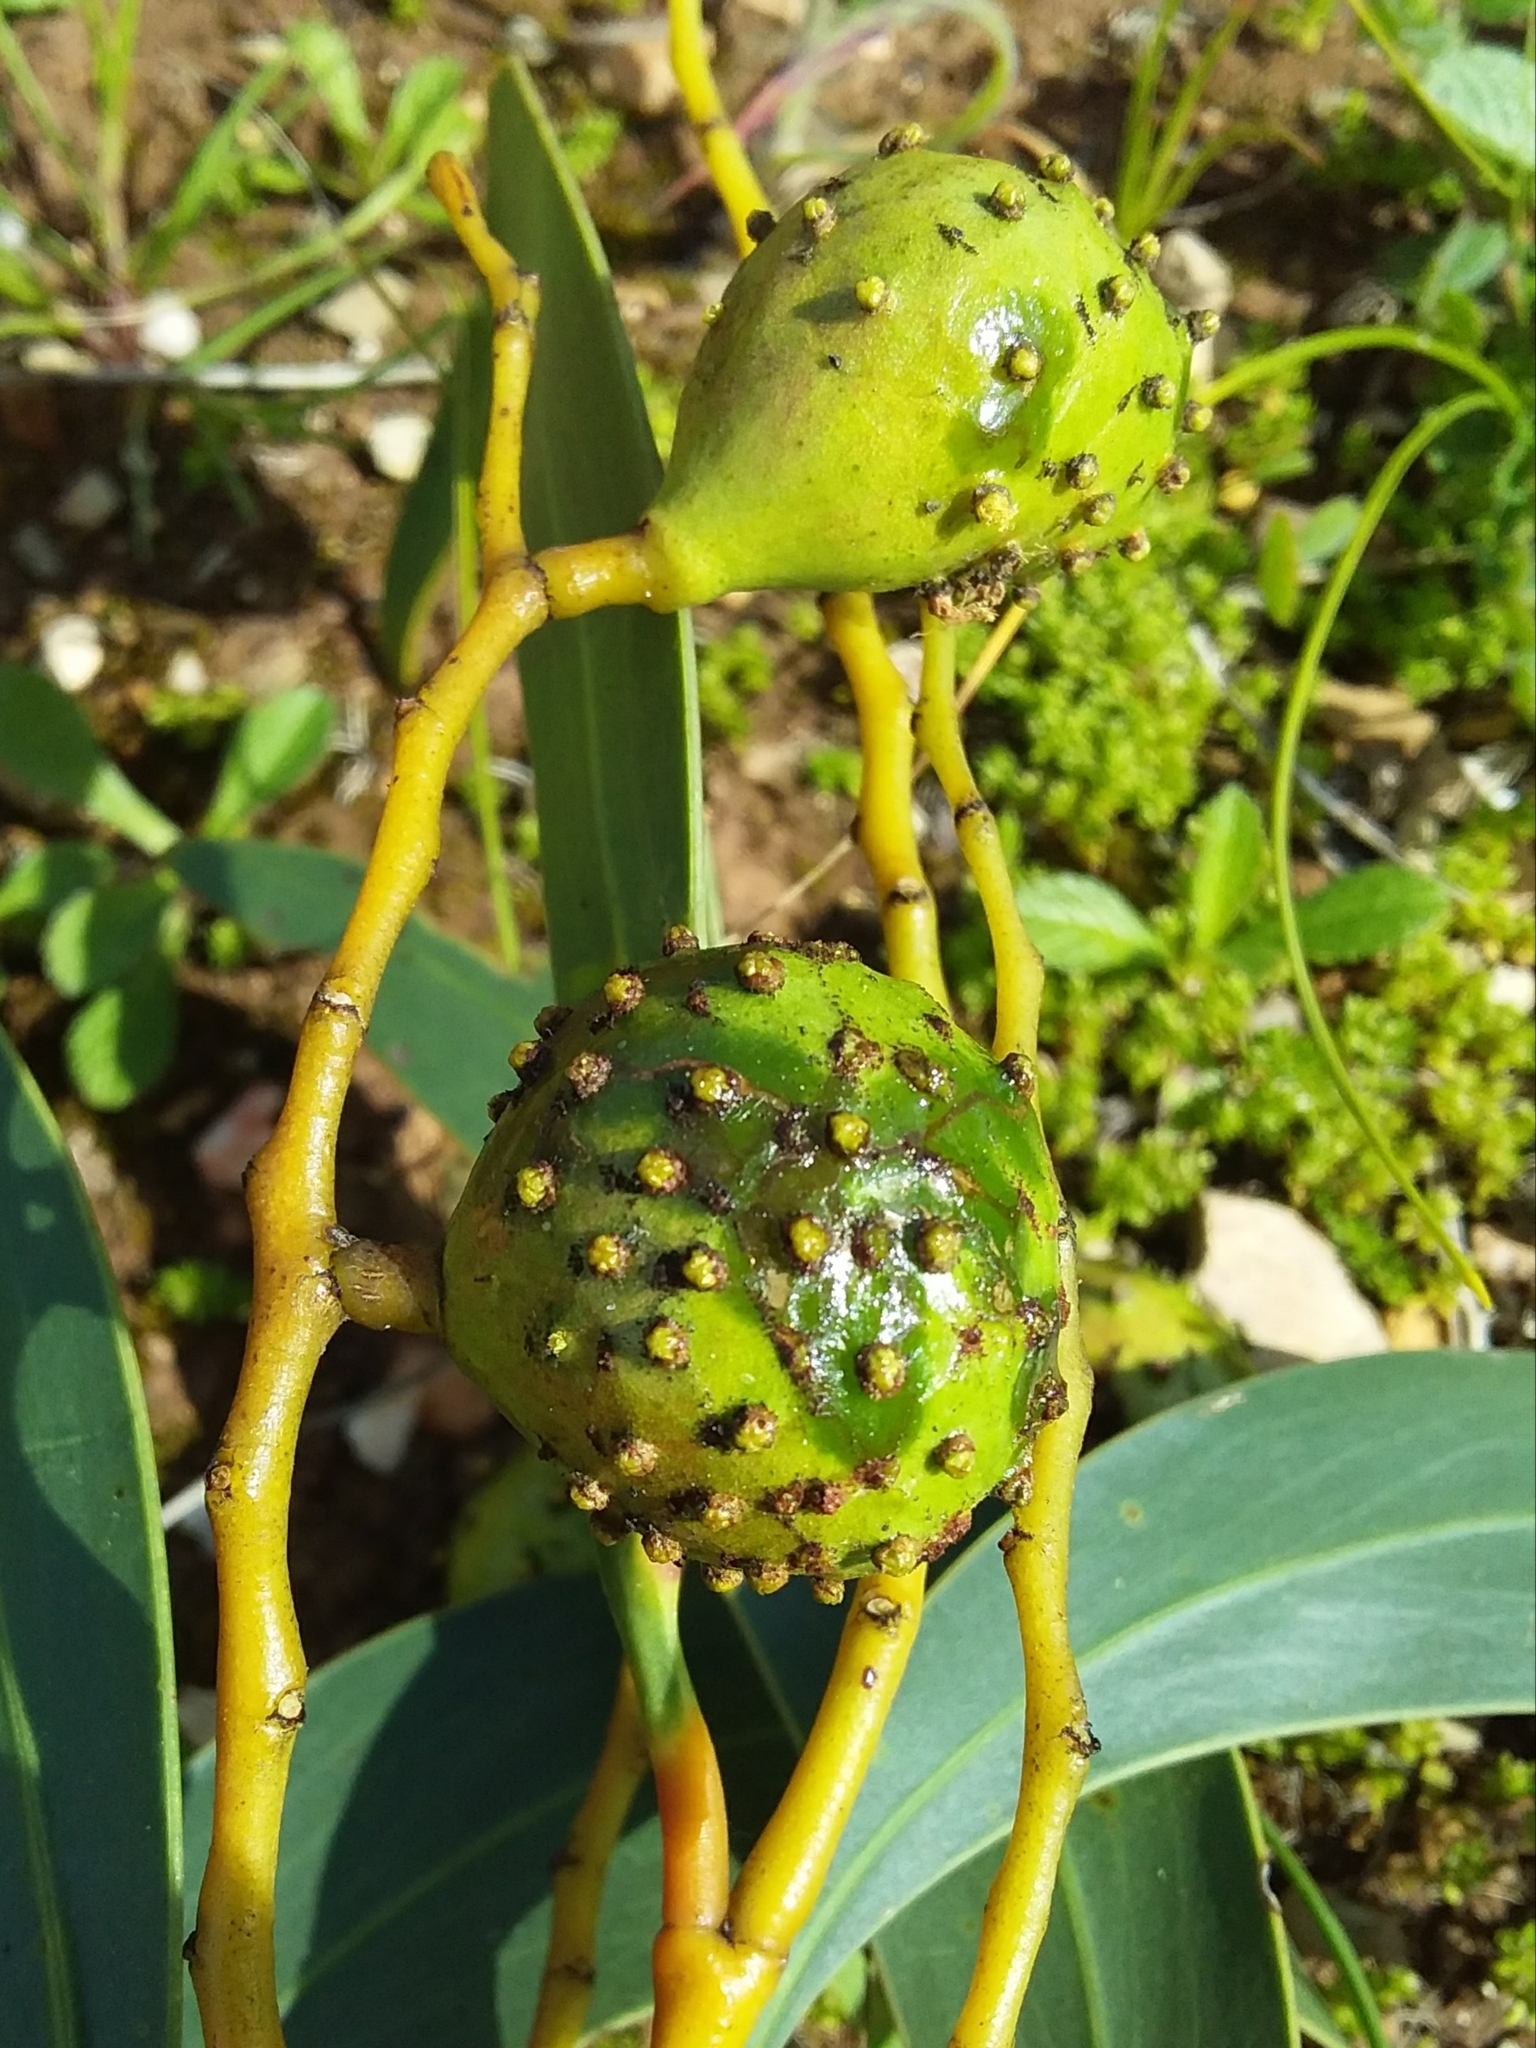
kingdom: Animalia
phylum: Arthropoda
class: Insecta
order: Hymenoptera
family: Pteromalidae
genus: Trichilogaster
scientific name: Trichilogaster signiventris
